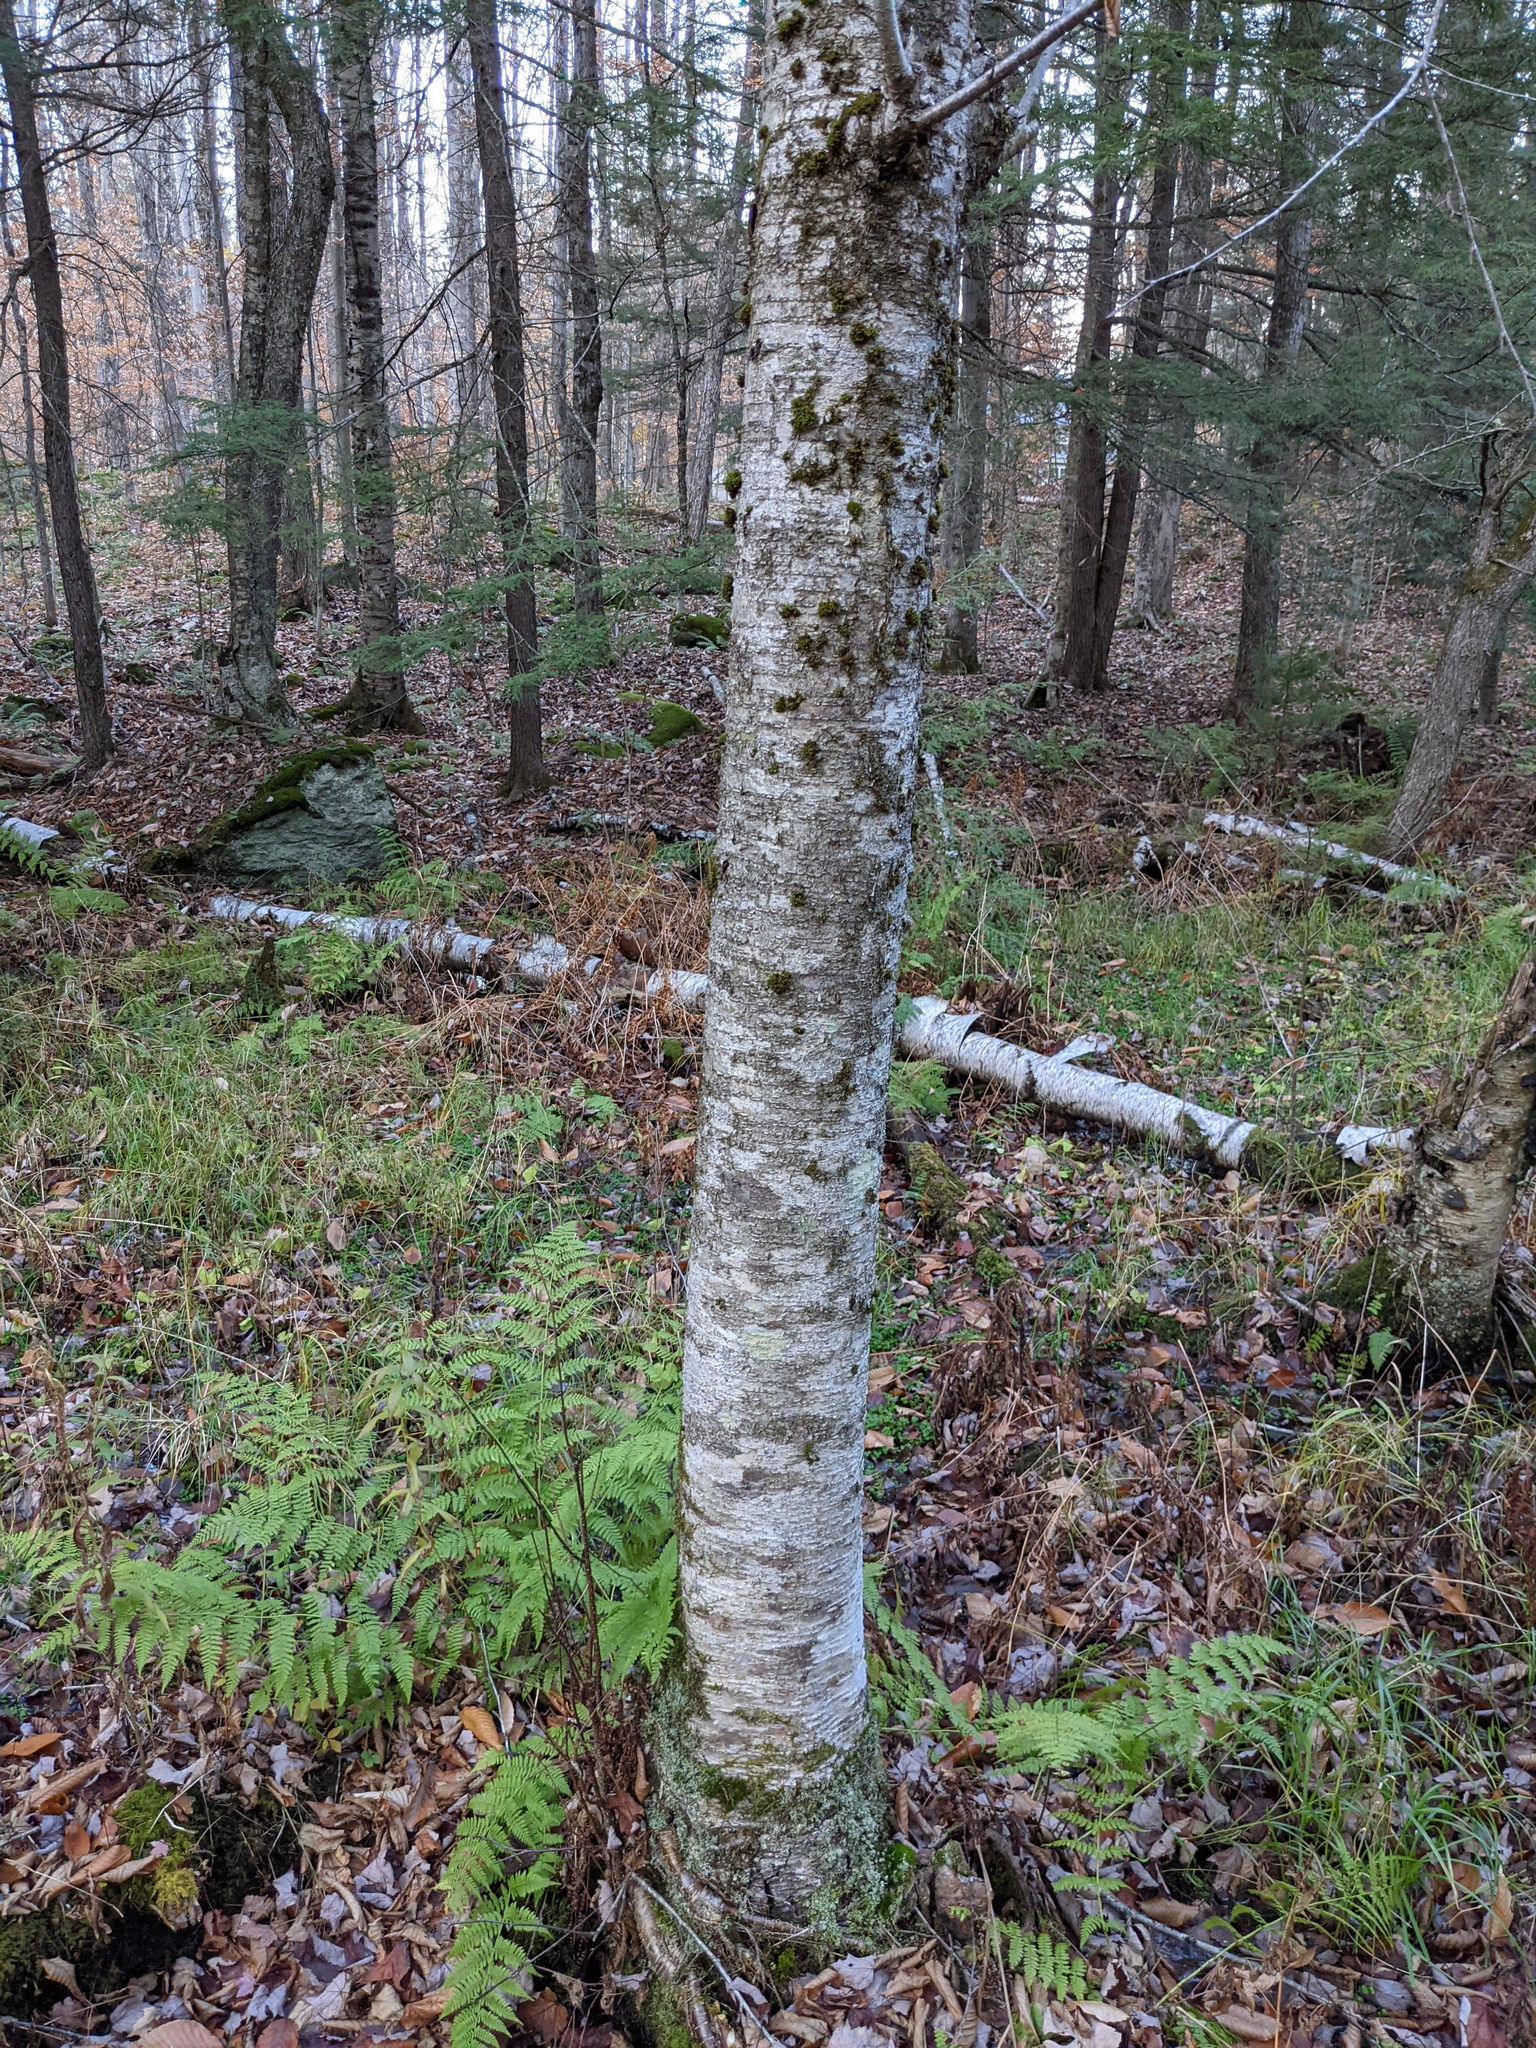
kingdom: Plantae
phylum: Tracheophyta
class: Magnoliopsida
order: Fagales
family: Betulaceae
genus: Betula
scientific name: Betula alleghaniensis
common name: Yellow birch
